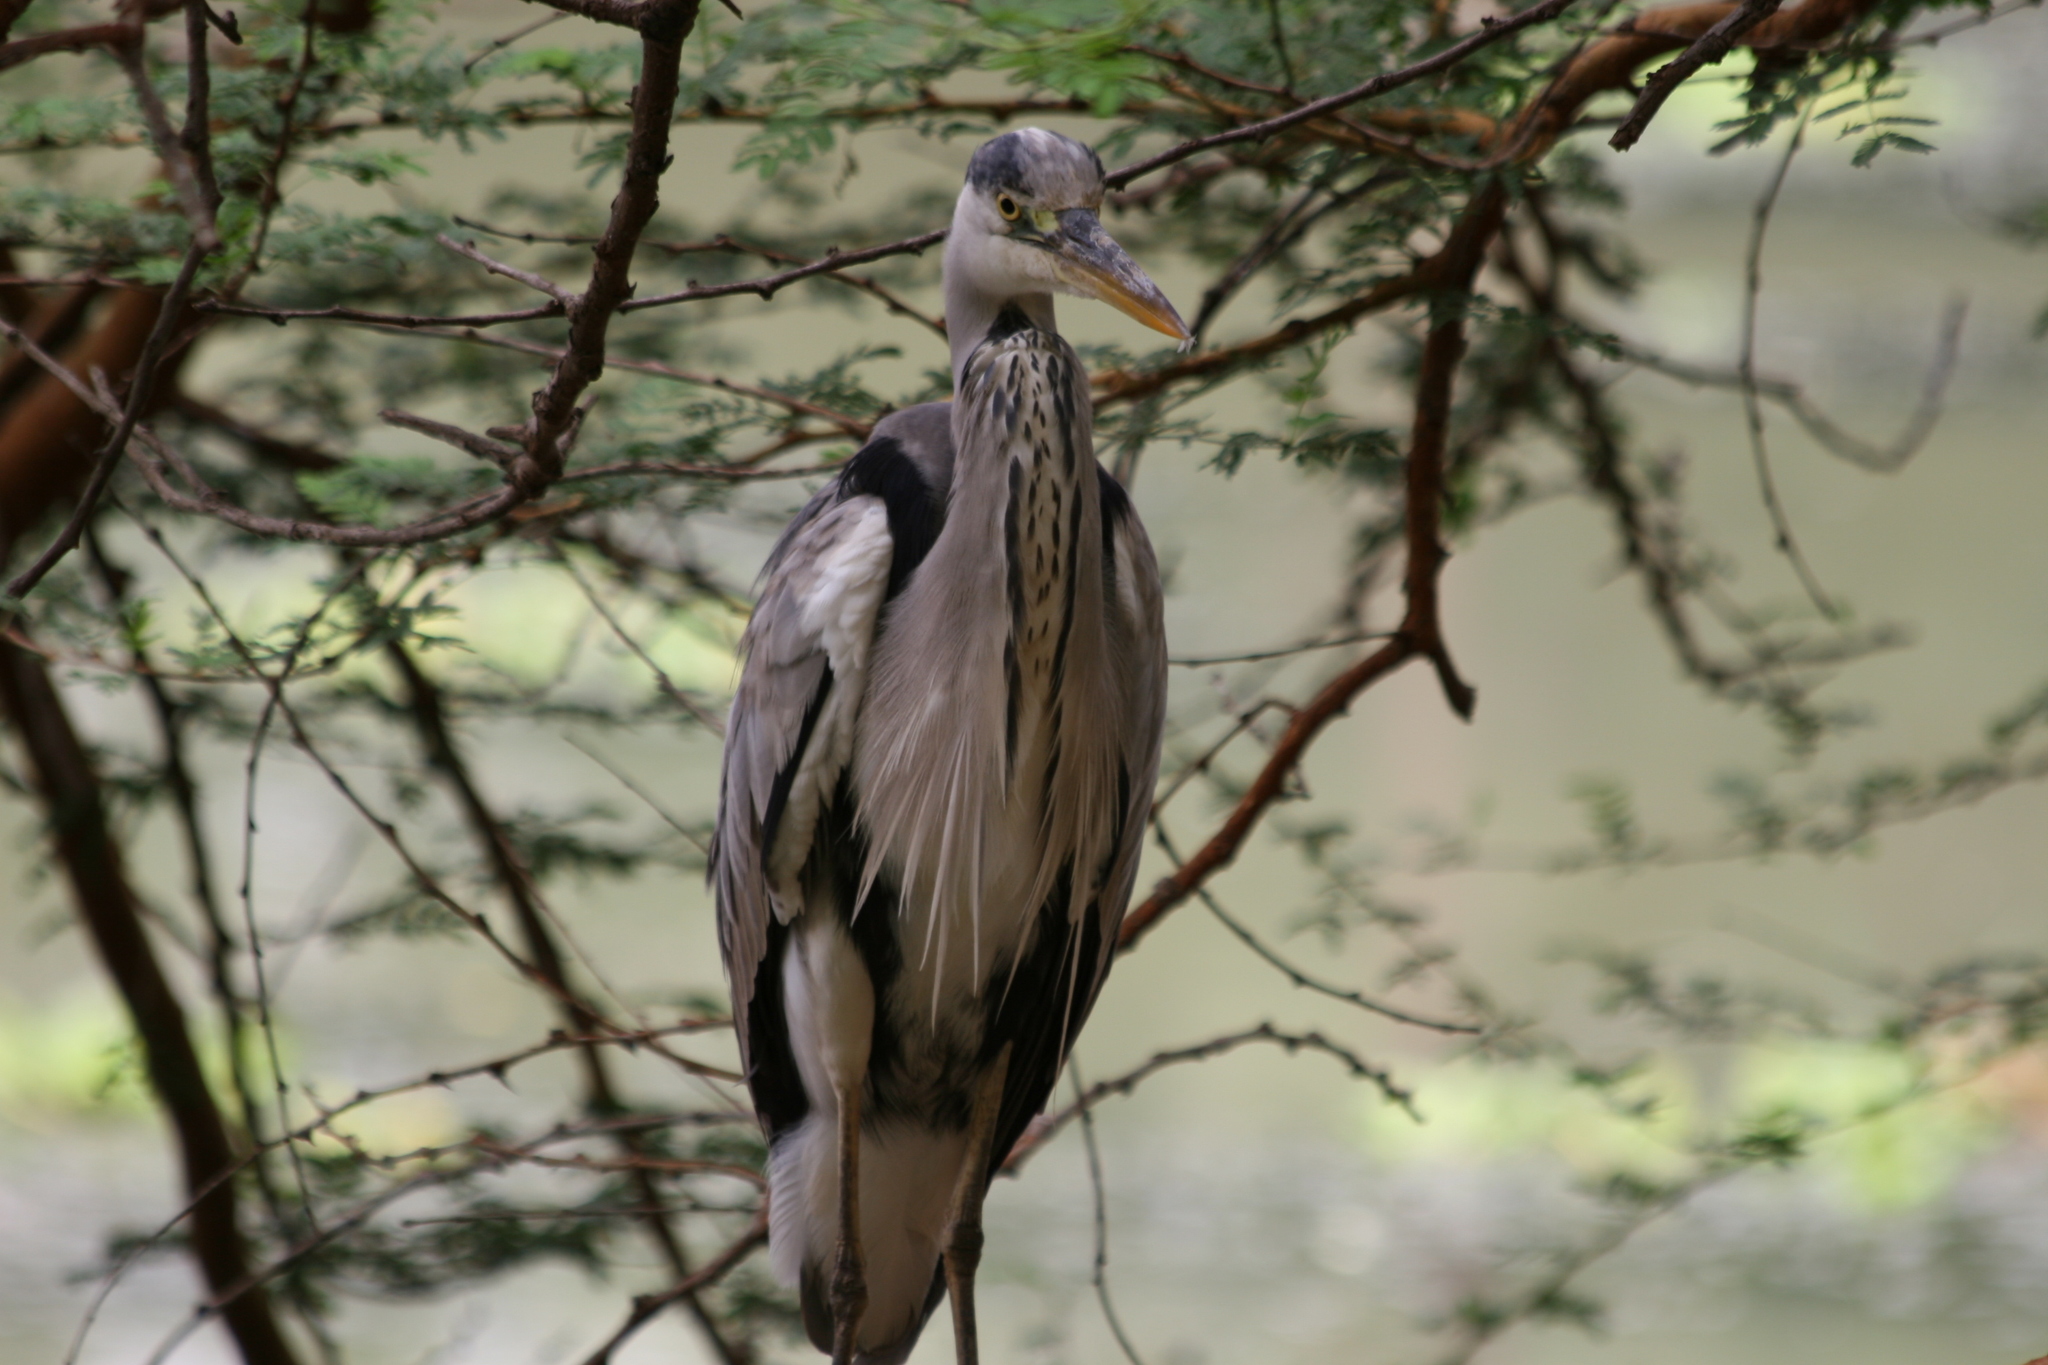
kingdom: Animalia
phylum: Chordata
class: Aves
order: Pelecaniformes
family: Ardeidae
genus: Ardea
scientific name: Ardea cinerea
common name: Grey heron
